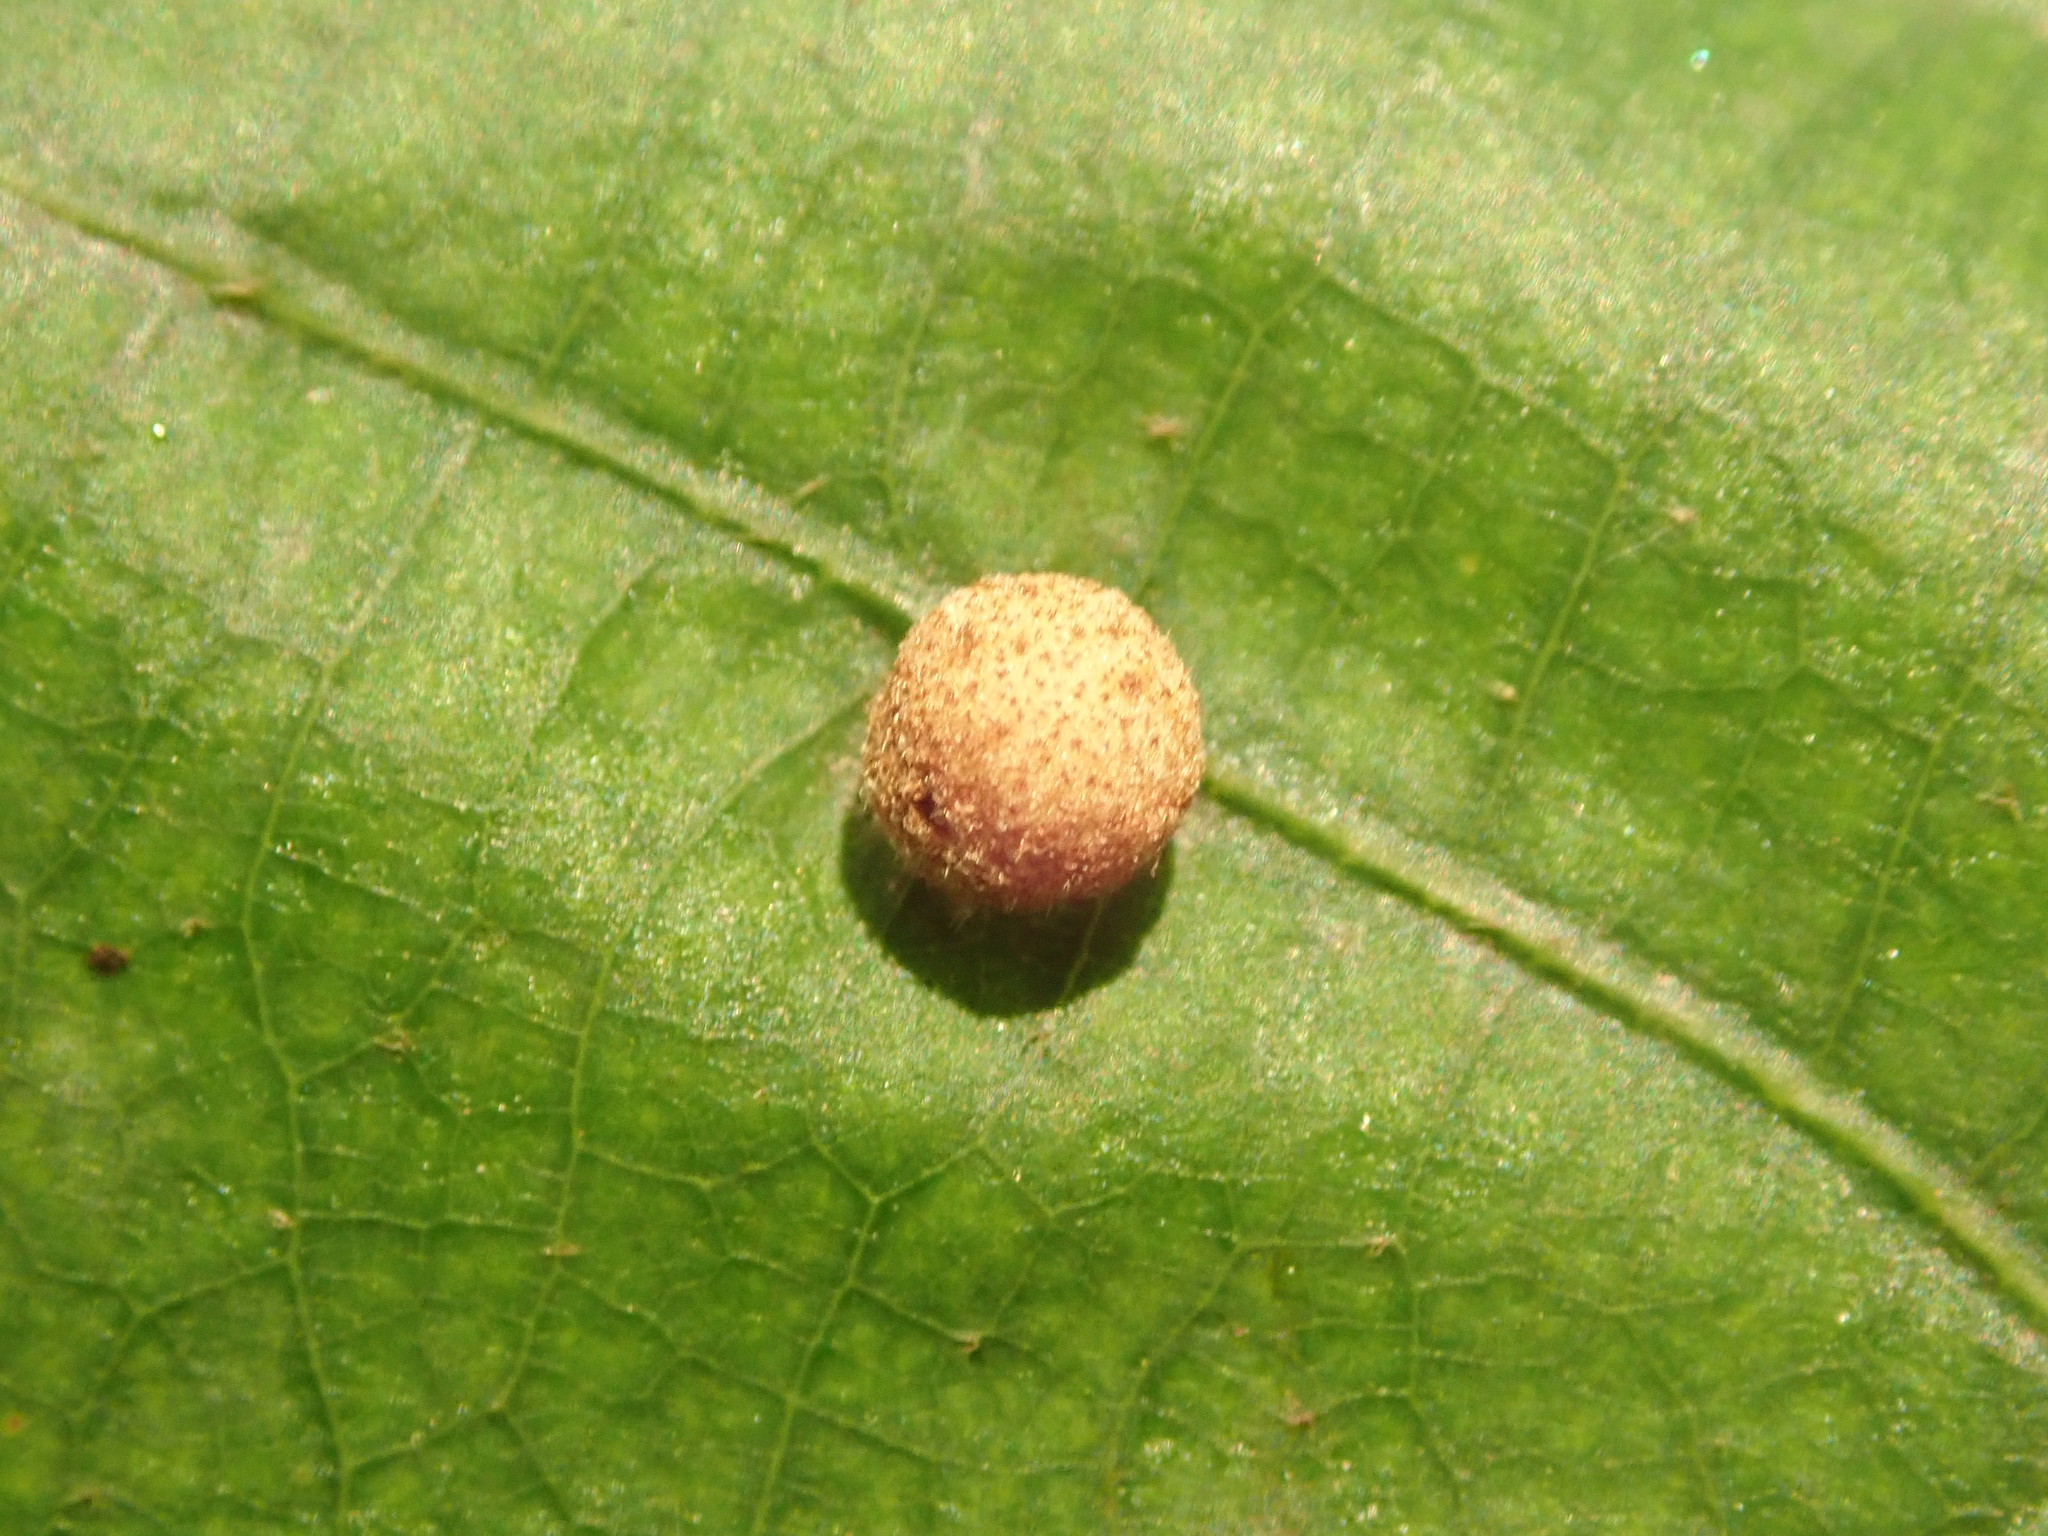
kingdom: Animalia
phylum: Arthropoda
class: Insecta
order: Hymenoptera
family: Cynipidae
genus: Philonix
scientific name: Philonix fulvicollis
